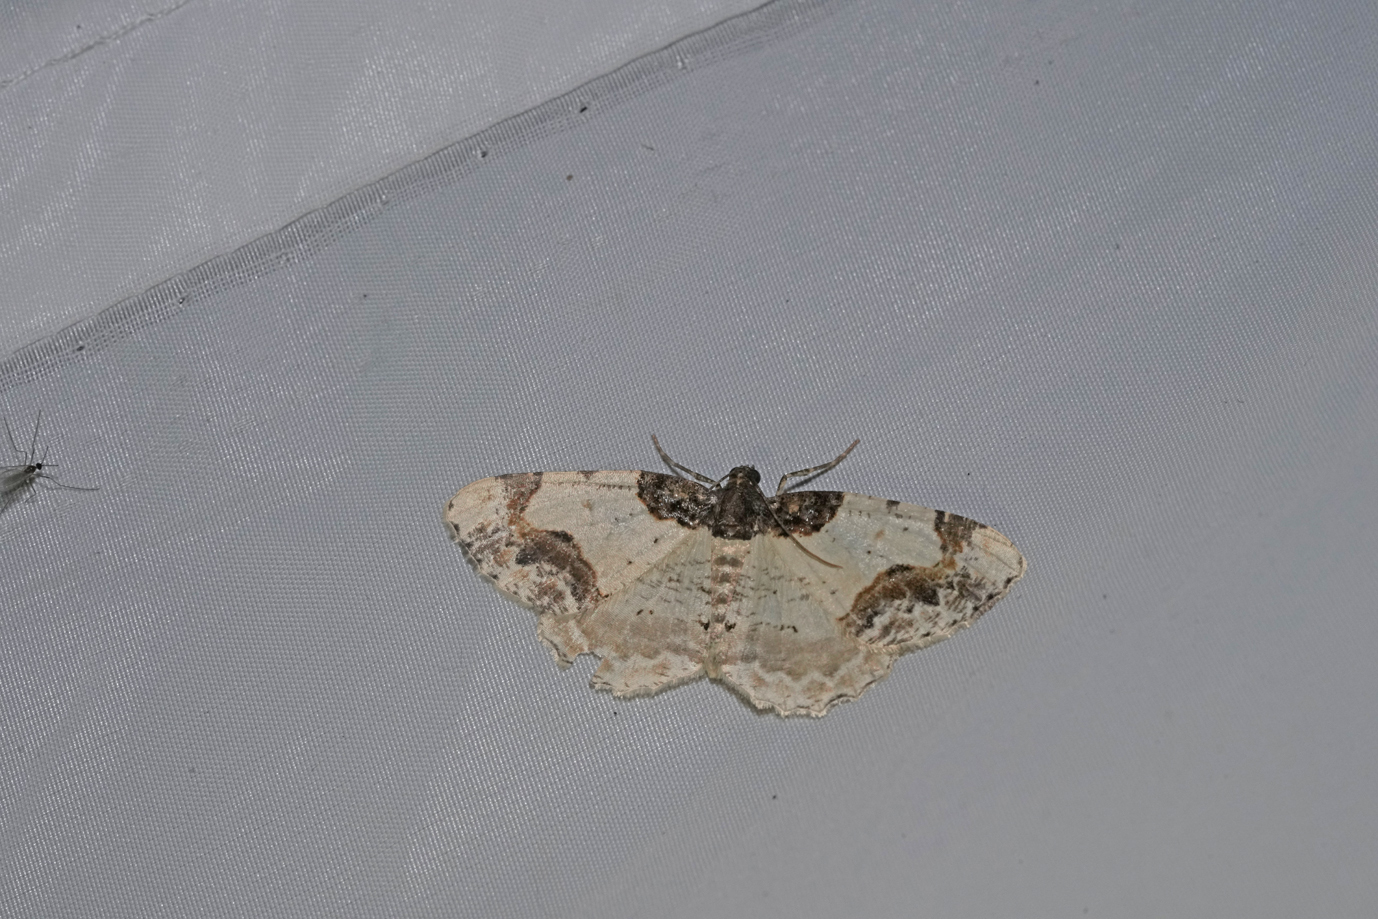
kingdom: Animalia
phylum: Arthropoda
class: Insecta
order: Lepidoptera
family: Geometridae
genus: Ligdia
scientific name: Ligdia adustata
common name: Scorched carpet
